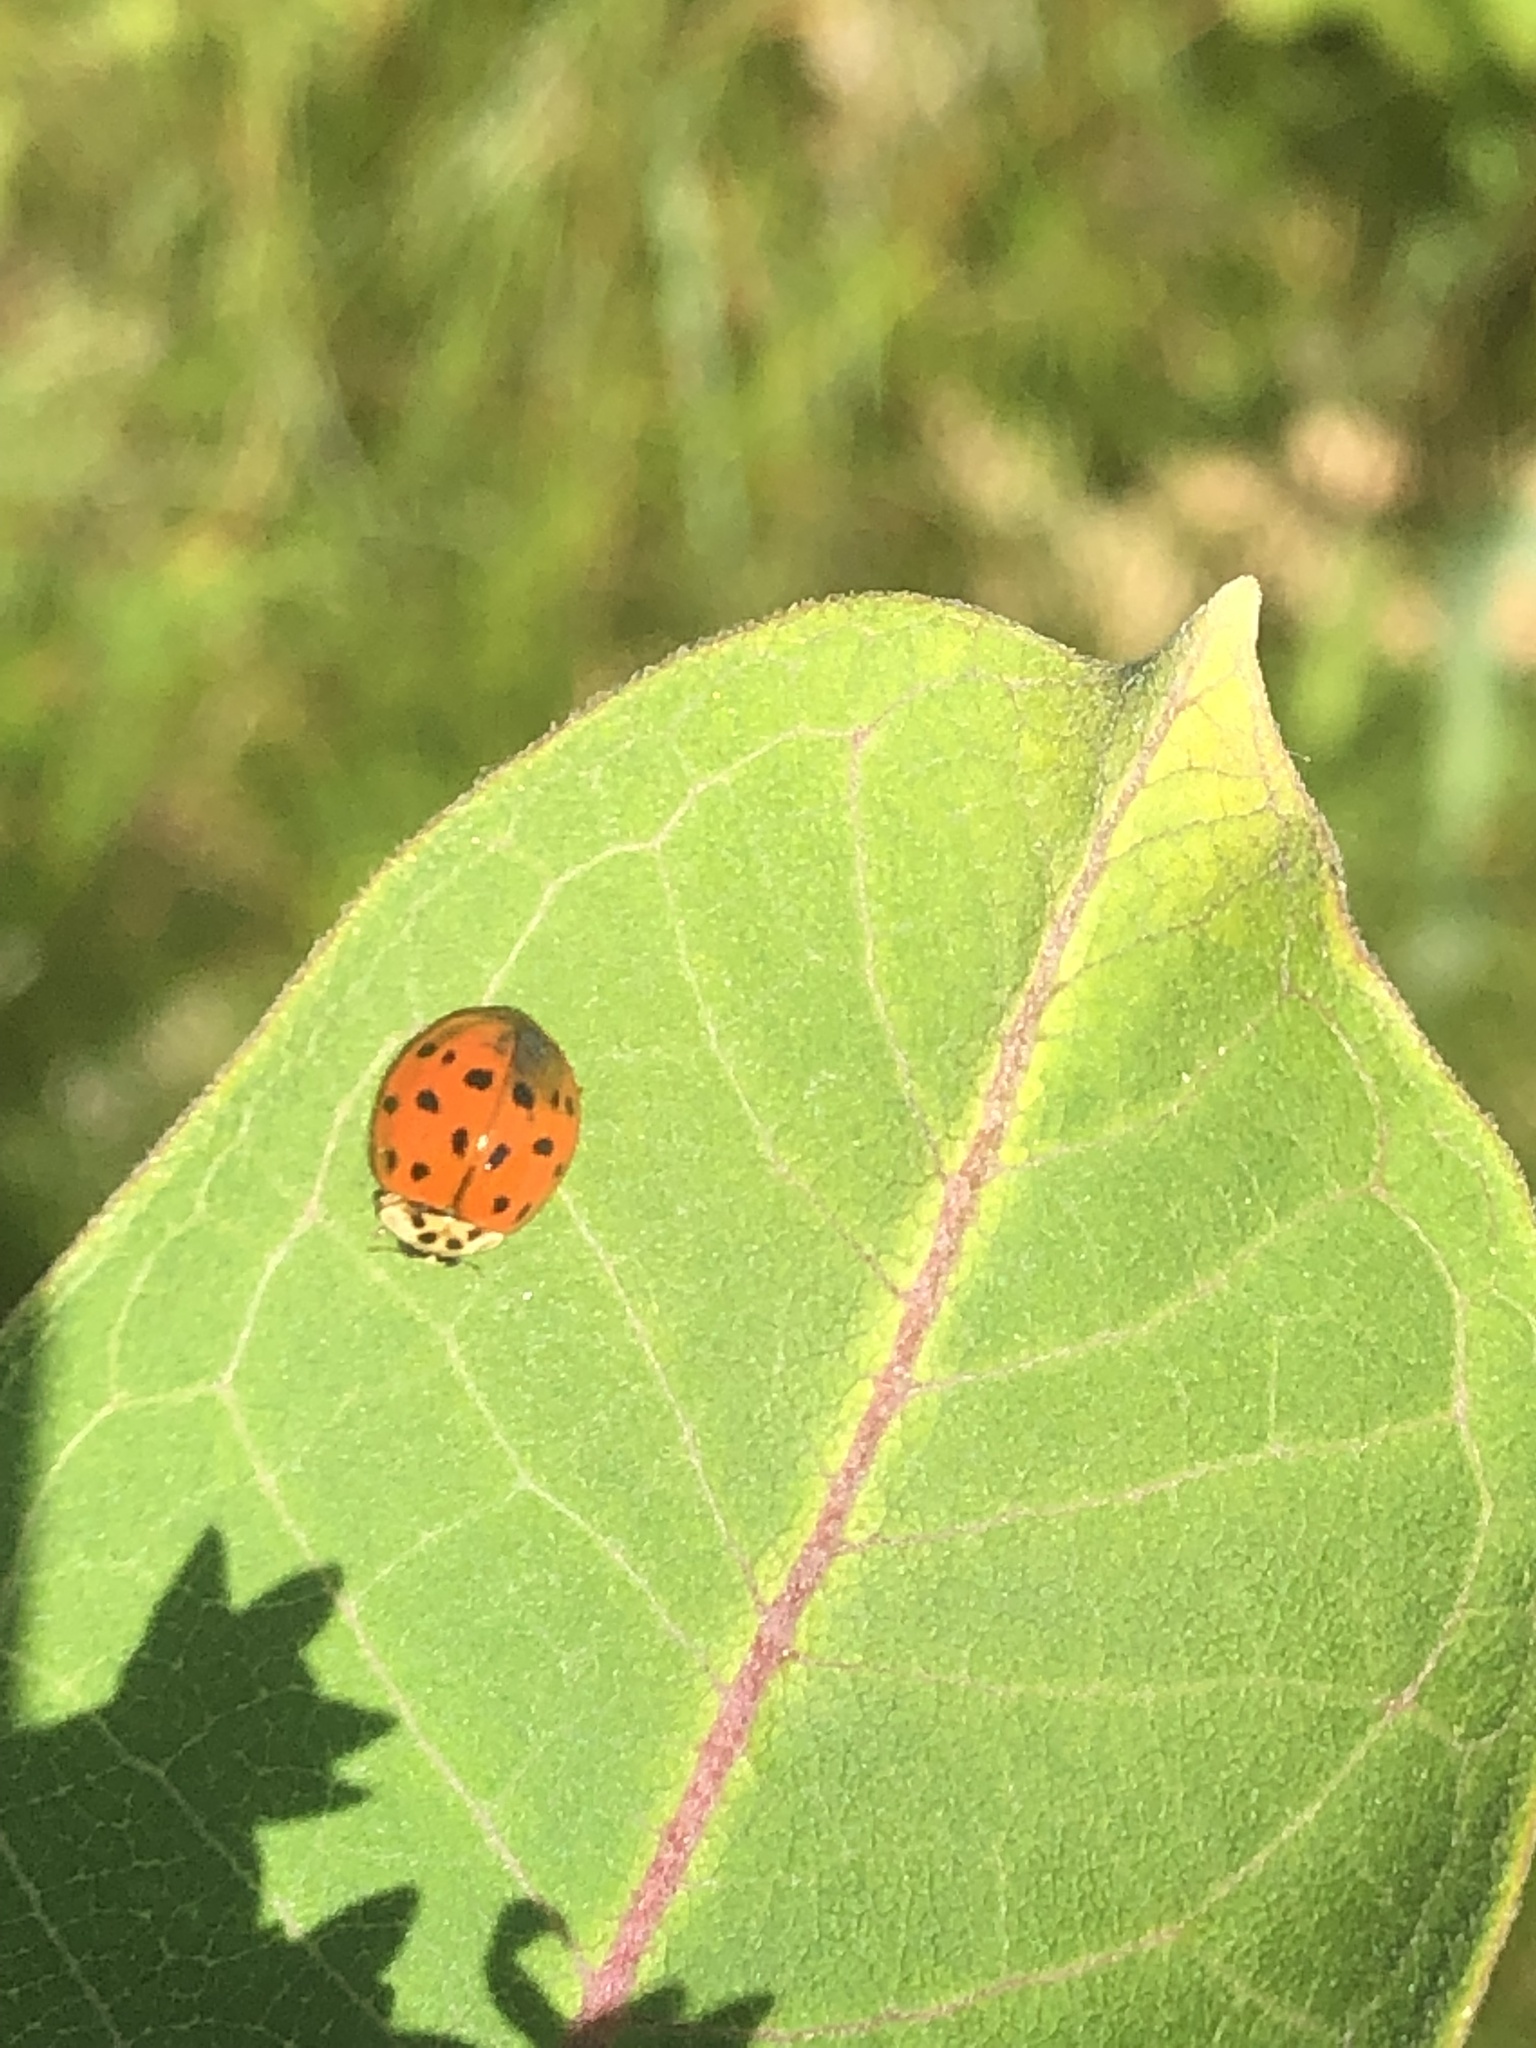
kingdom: Animalia
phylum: Arthropoda
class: Insecta
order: Coleoptera
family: Coccinellidae
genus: Harmonia
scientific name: Harmonia axyridis
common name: Harlequin ladybird
